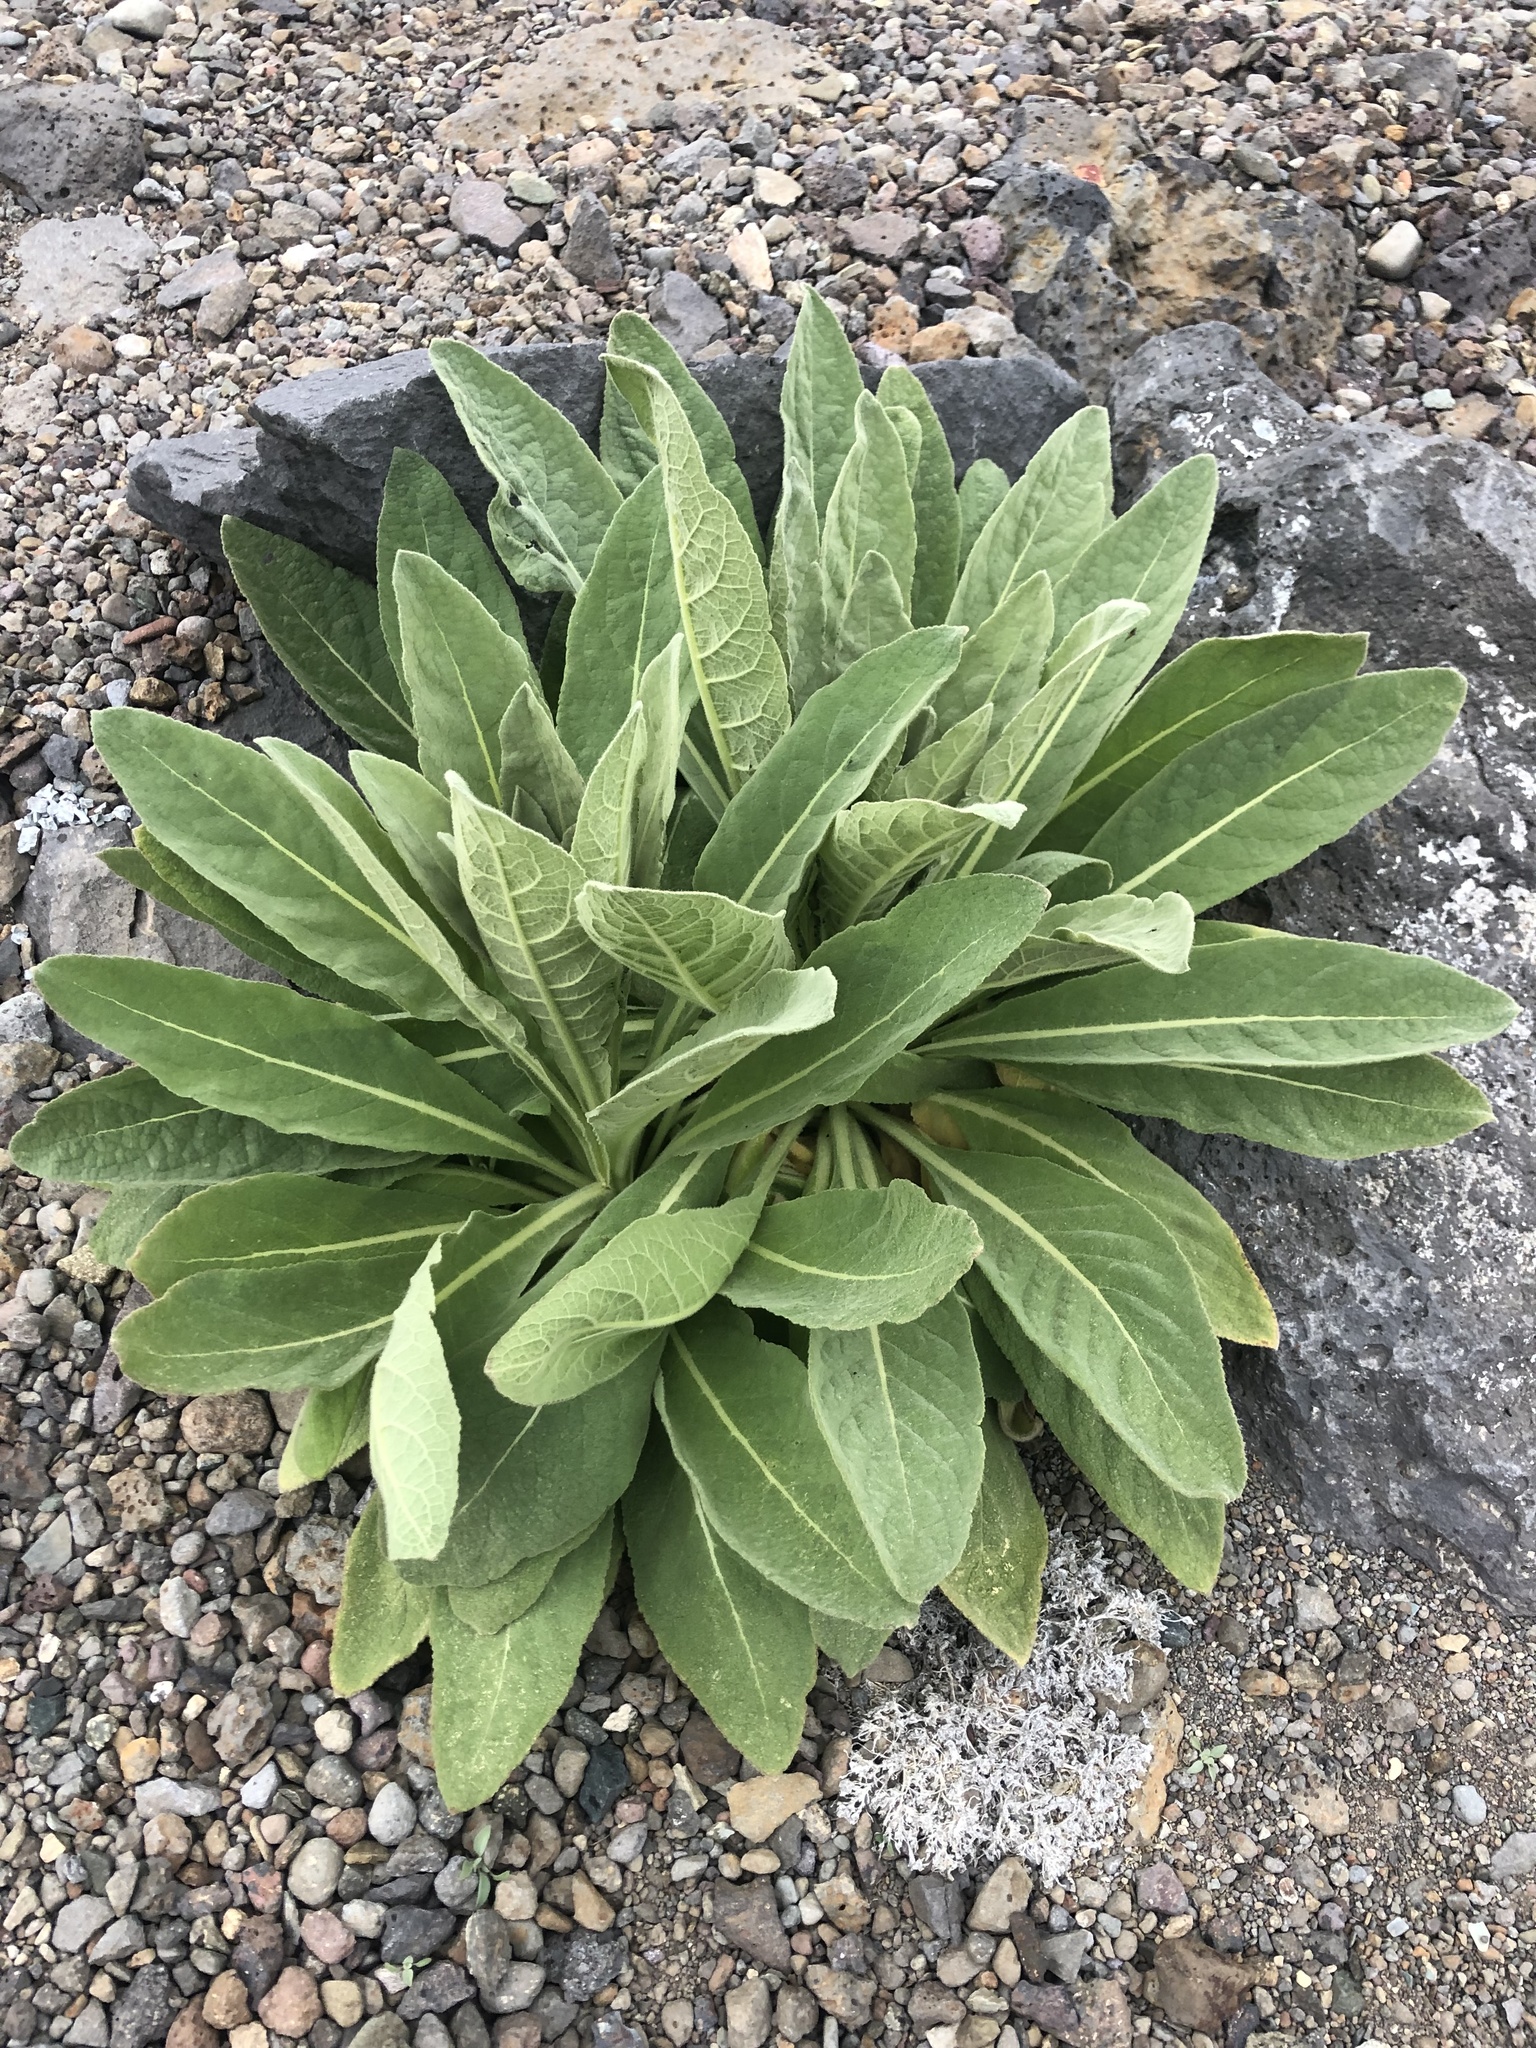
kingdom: Plantae
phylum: Tracheophyta
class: Magnoliopsida
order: Lamiales
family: Scrophulariaceae
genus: Verbascum
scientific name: Verbascum thapsus
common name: Common mullein
